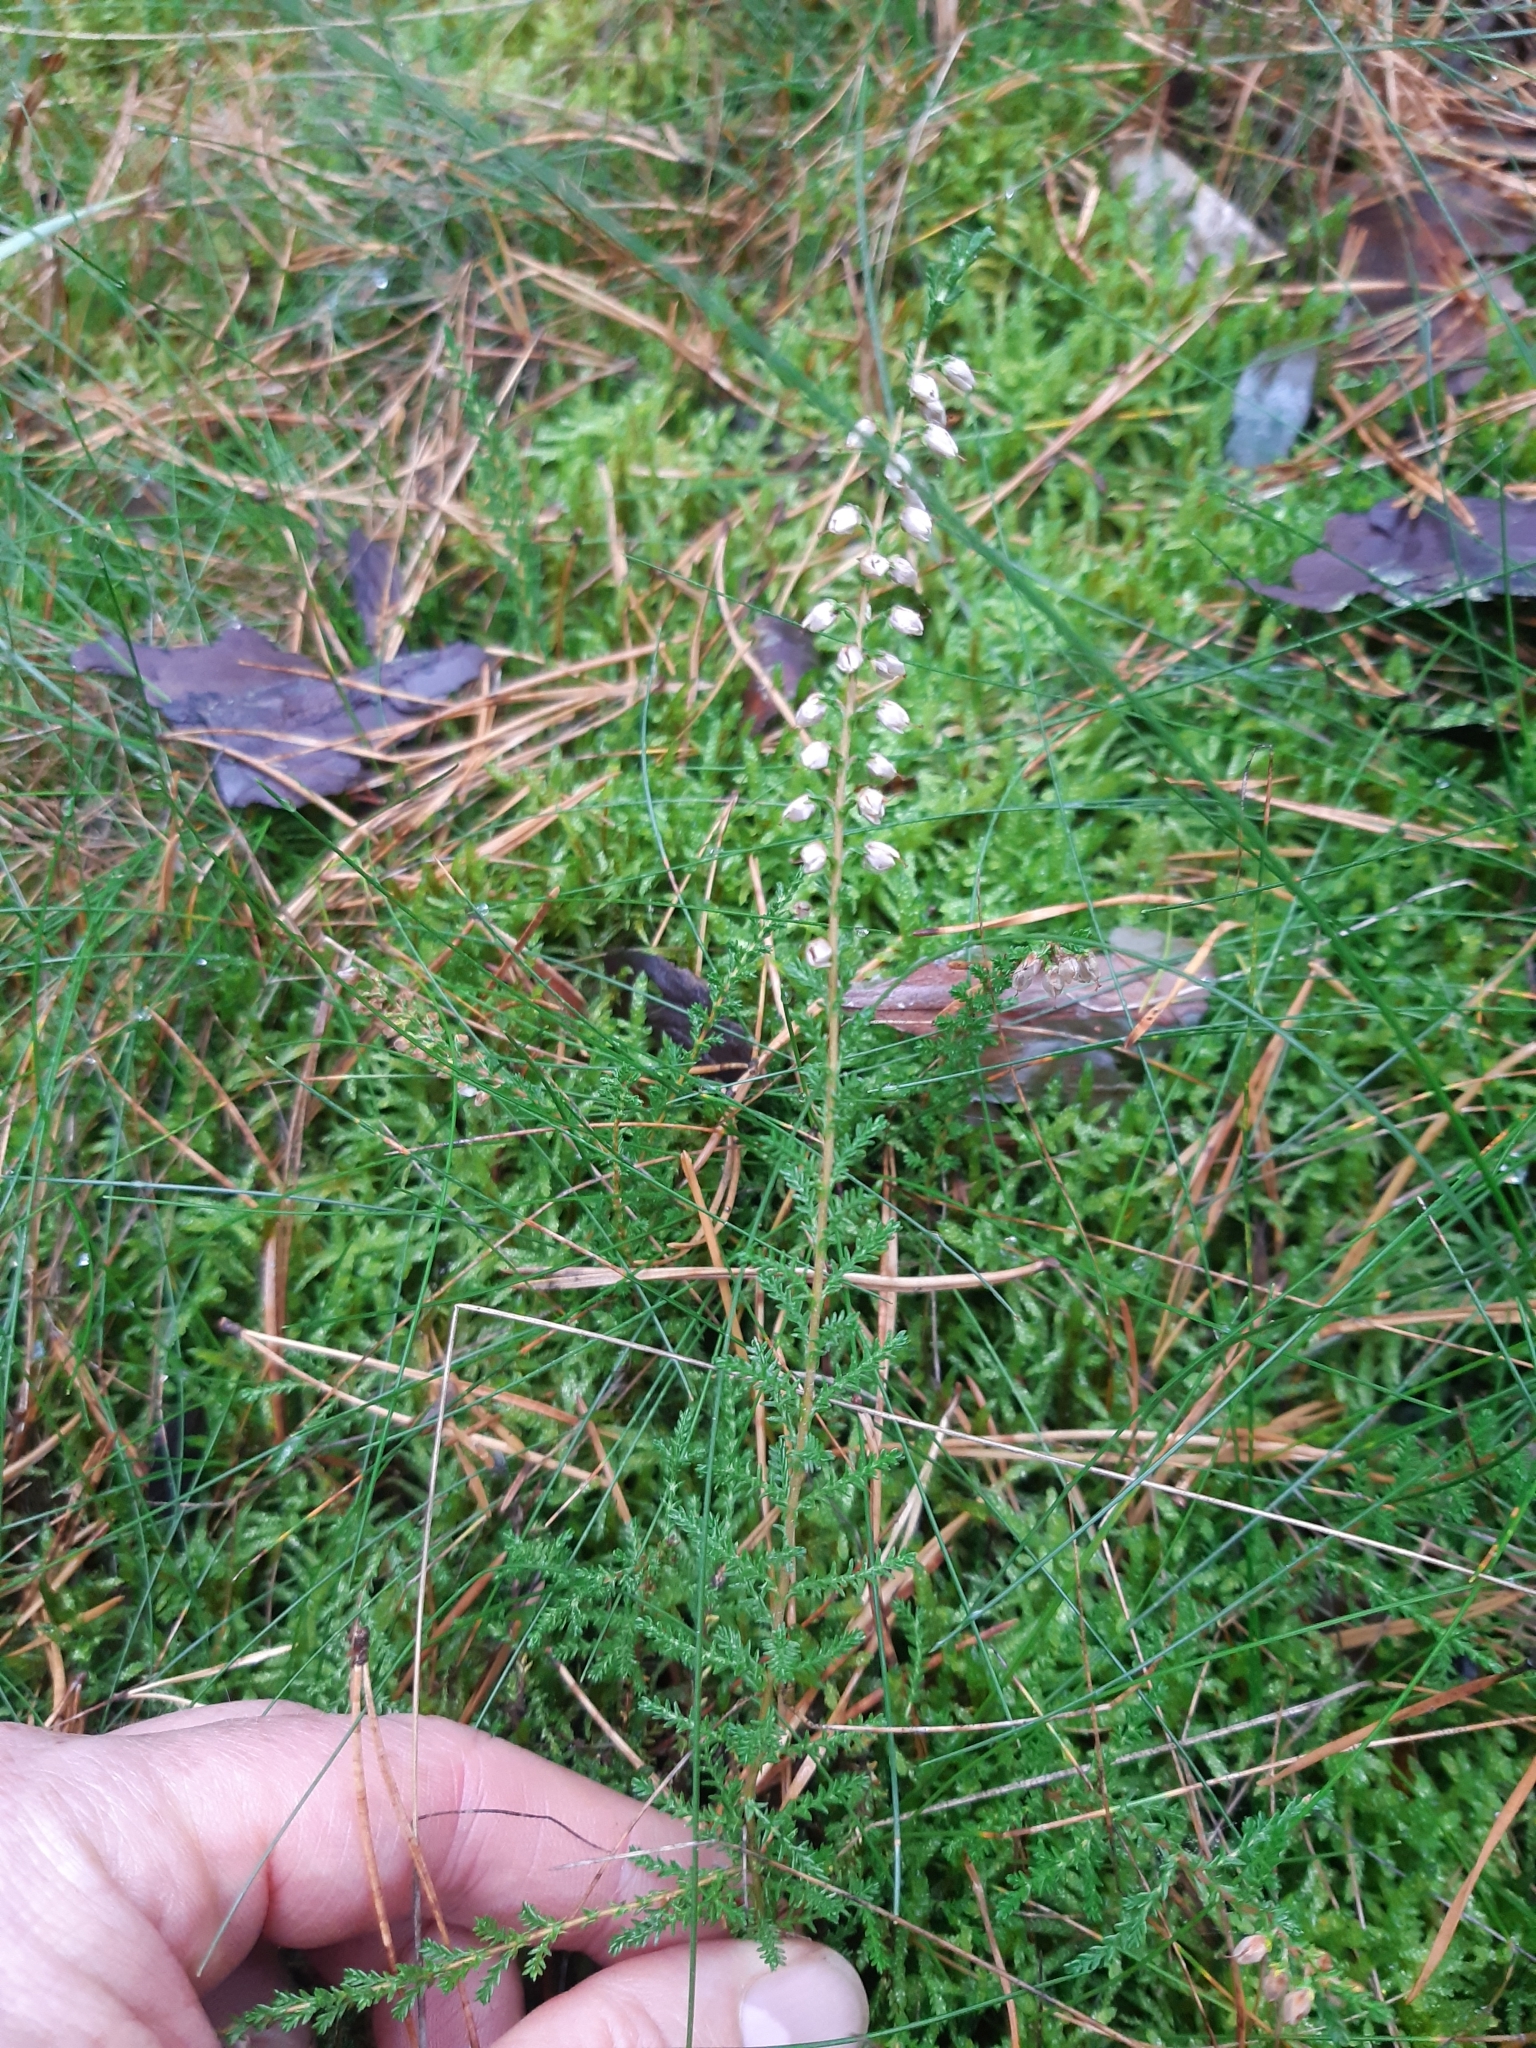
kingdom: Plantae
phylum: Tracheophyta
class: Magnoliopsida
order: Ericales
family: Ericaceae
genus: Calluna
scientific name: Calluna vulgaris
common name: Heather
